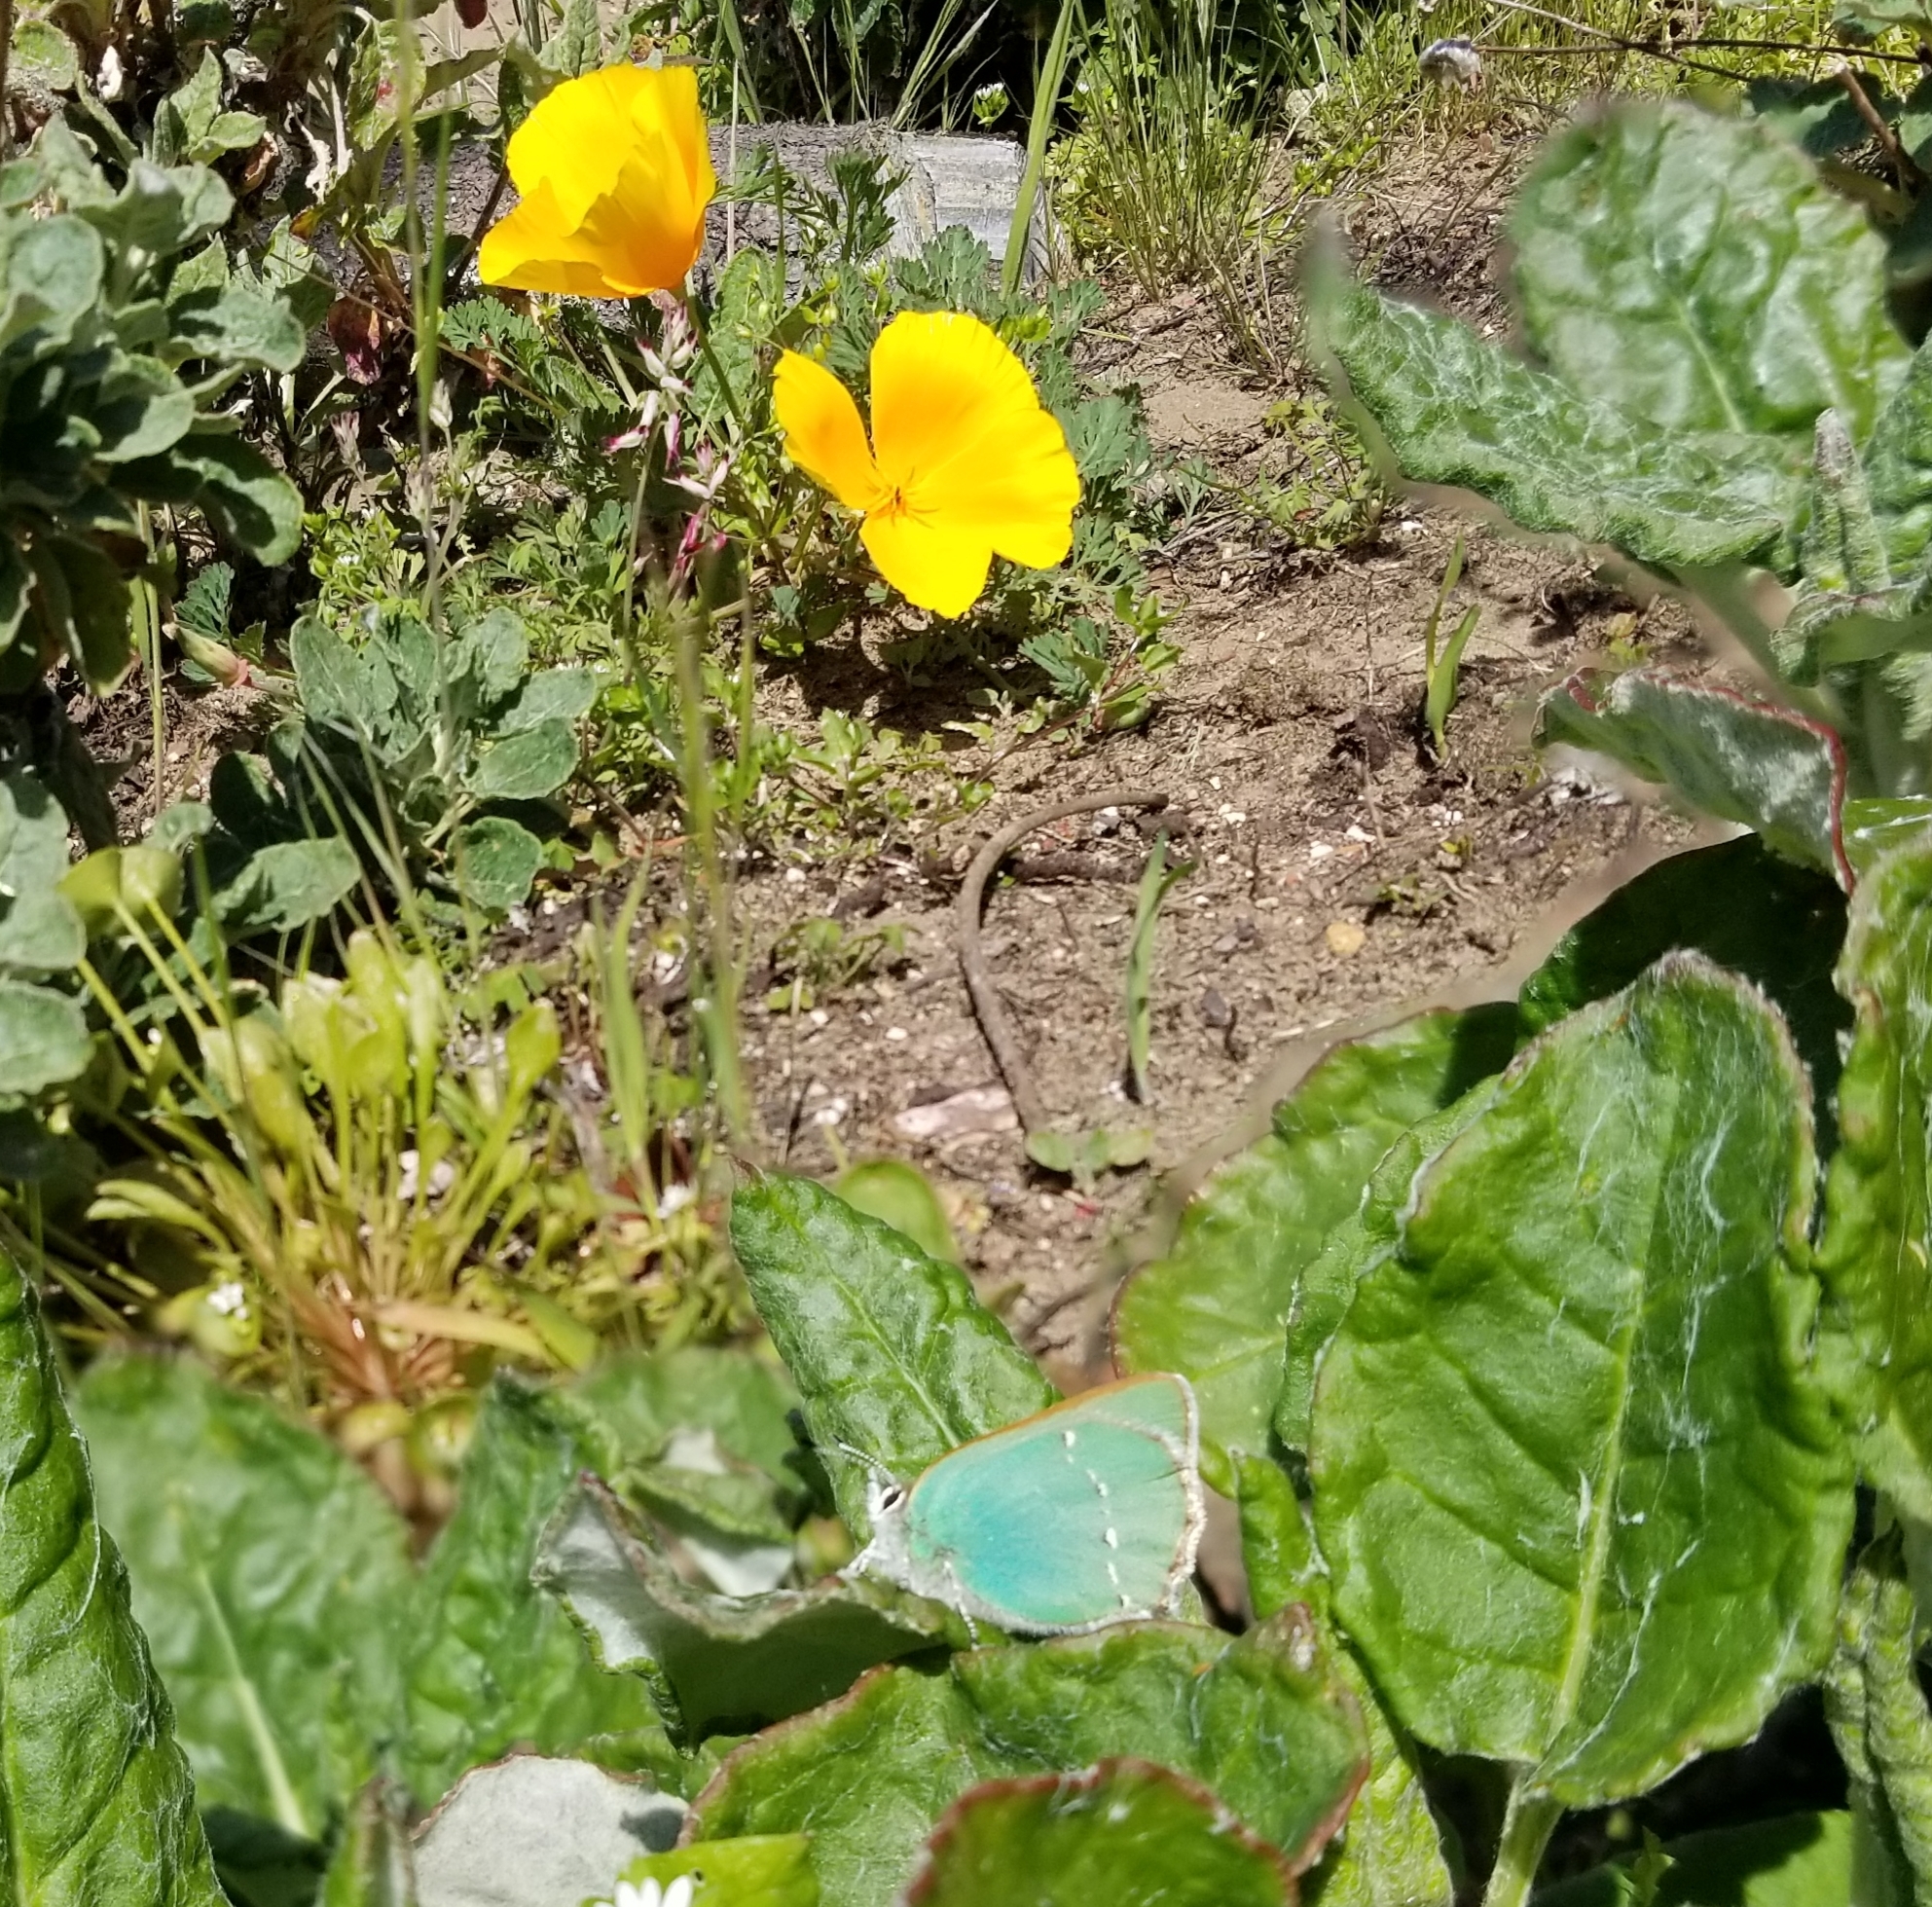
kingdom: Animalia
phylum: Arthropoda
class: Insecta
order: Lepidoptera
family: Lycaenidae
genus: Callophrys
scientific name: Callophrys viridis
